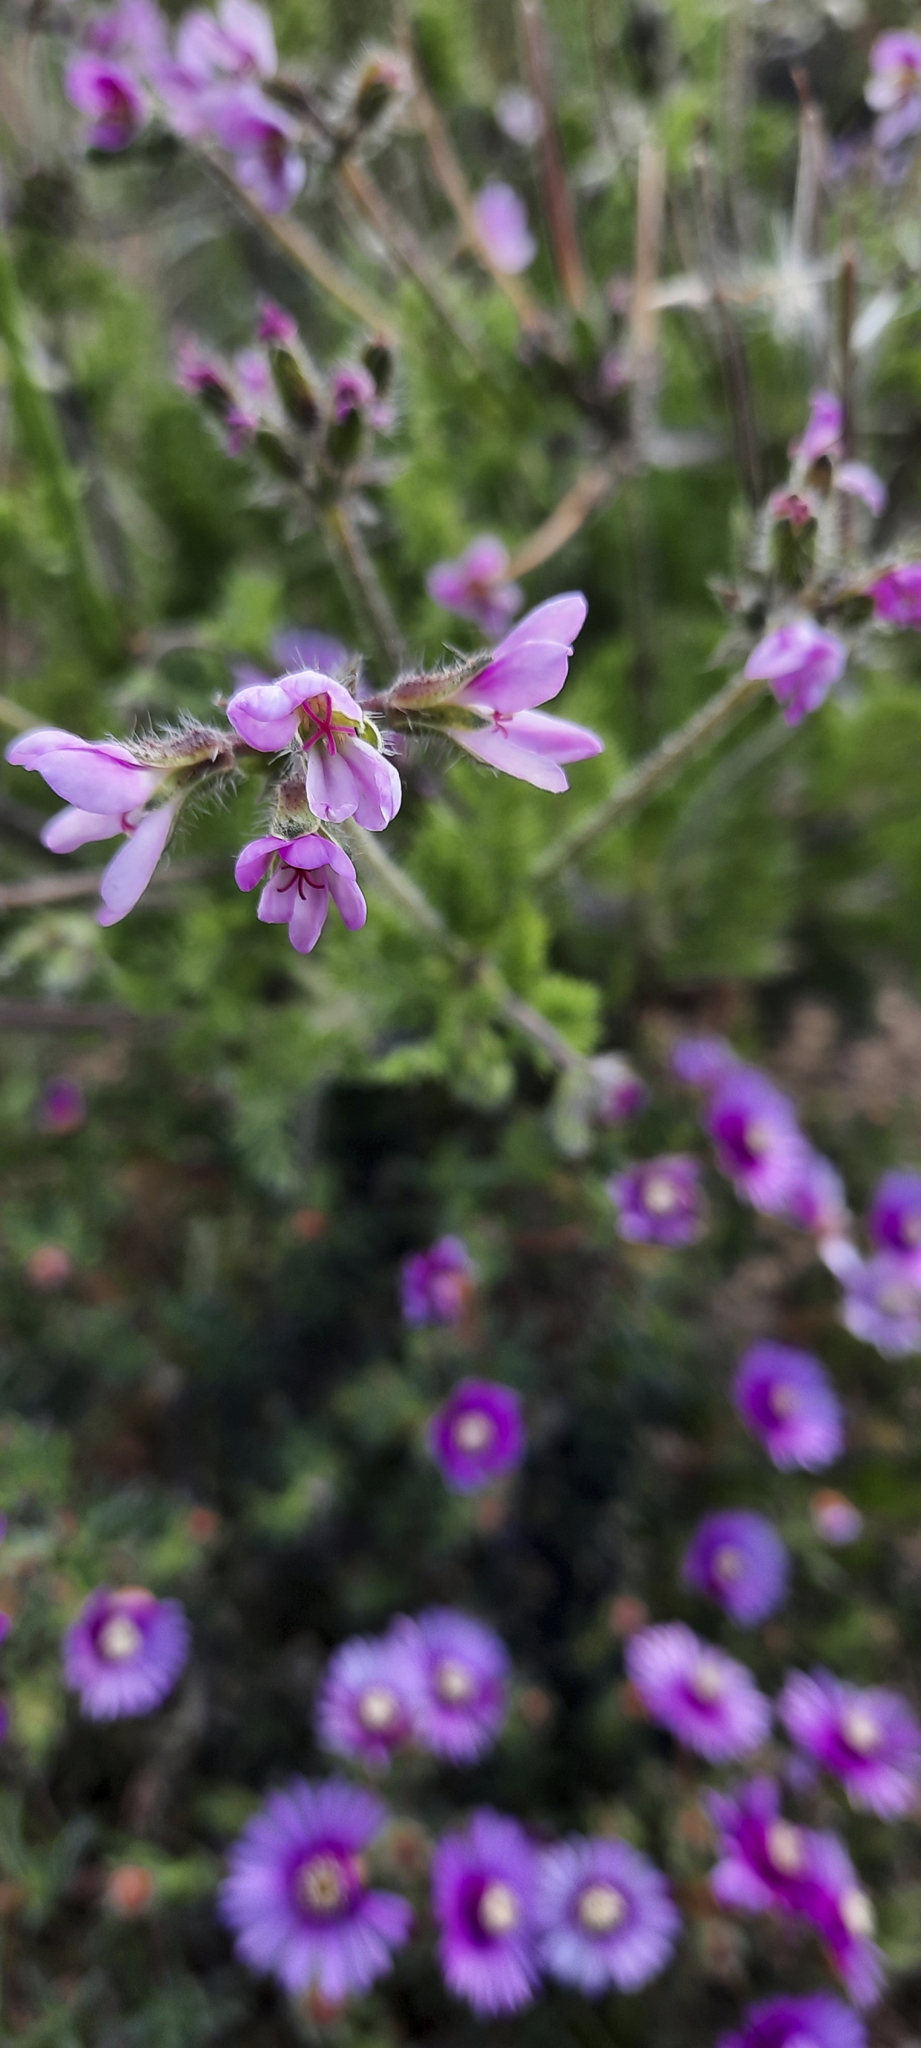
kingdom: Plantae
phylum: Tracheophyta
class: Magnoliopsida
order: Geraniales
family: Geraniaceae
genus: Pelargonium
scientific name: Pelargonium hirtum
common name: Fine-leaf pelargonium
